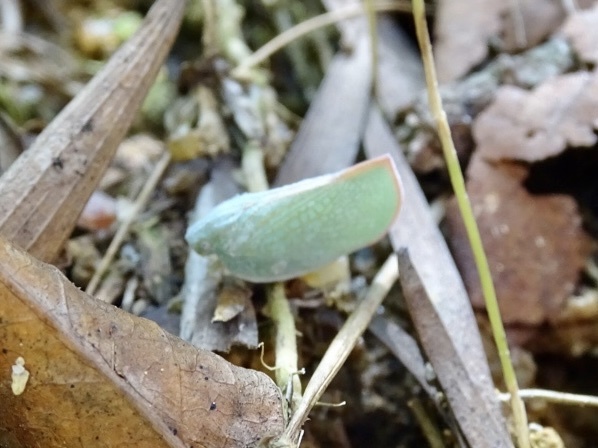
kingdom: Animalia
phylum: Arthropoda
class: Insecta
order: Hemiptera
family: Flatidae
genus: Geisha
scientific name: Geisha distinctissima
